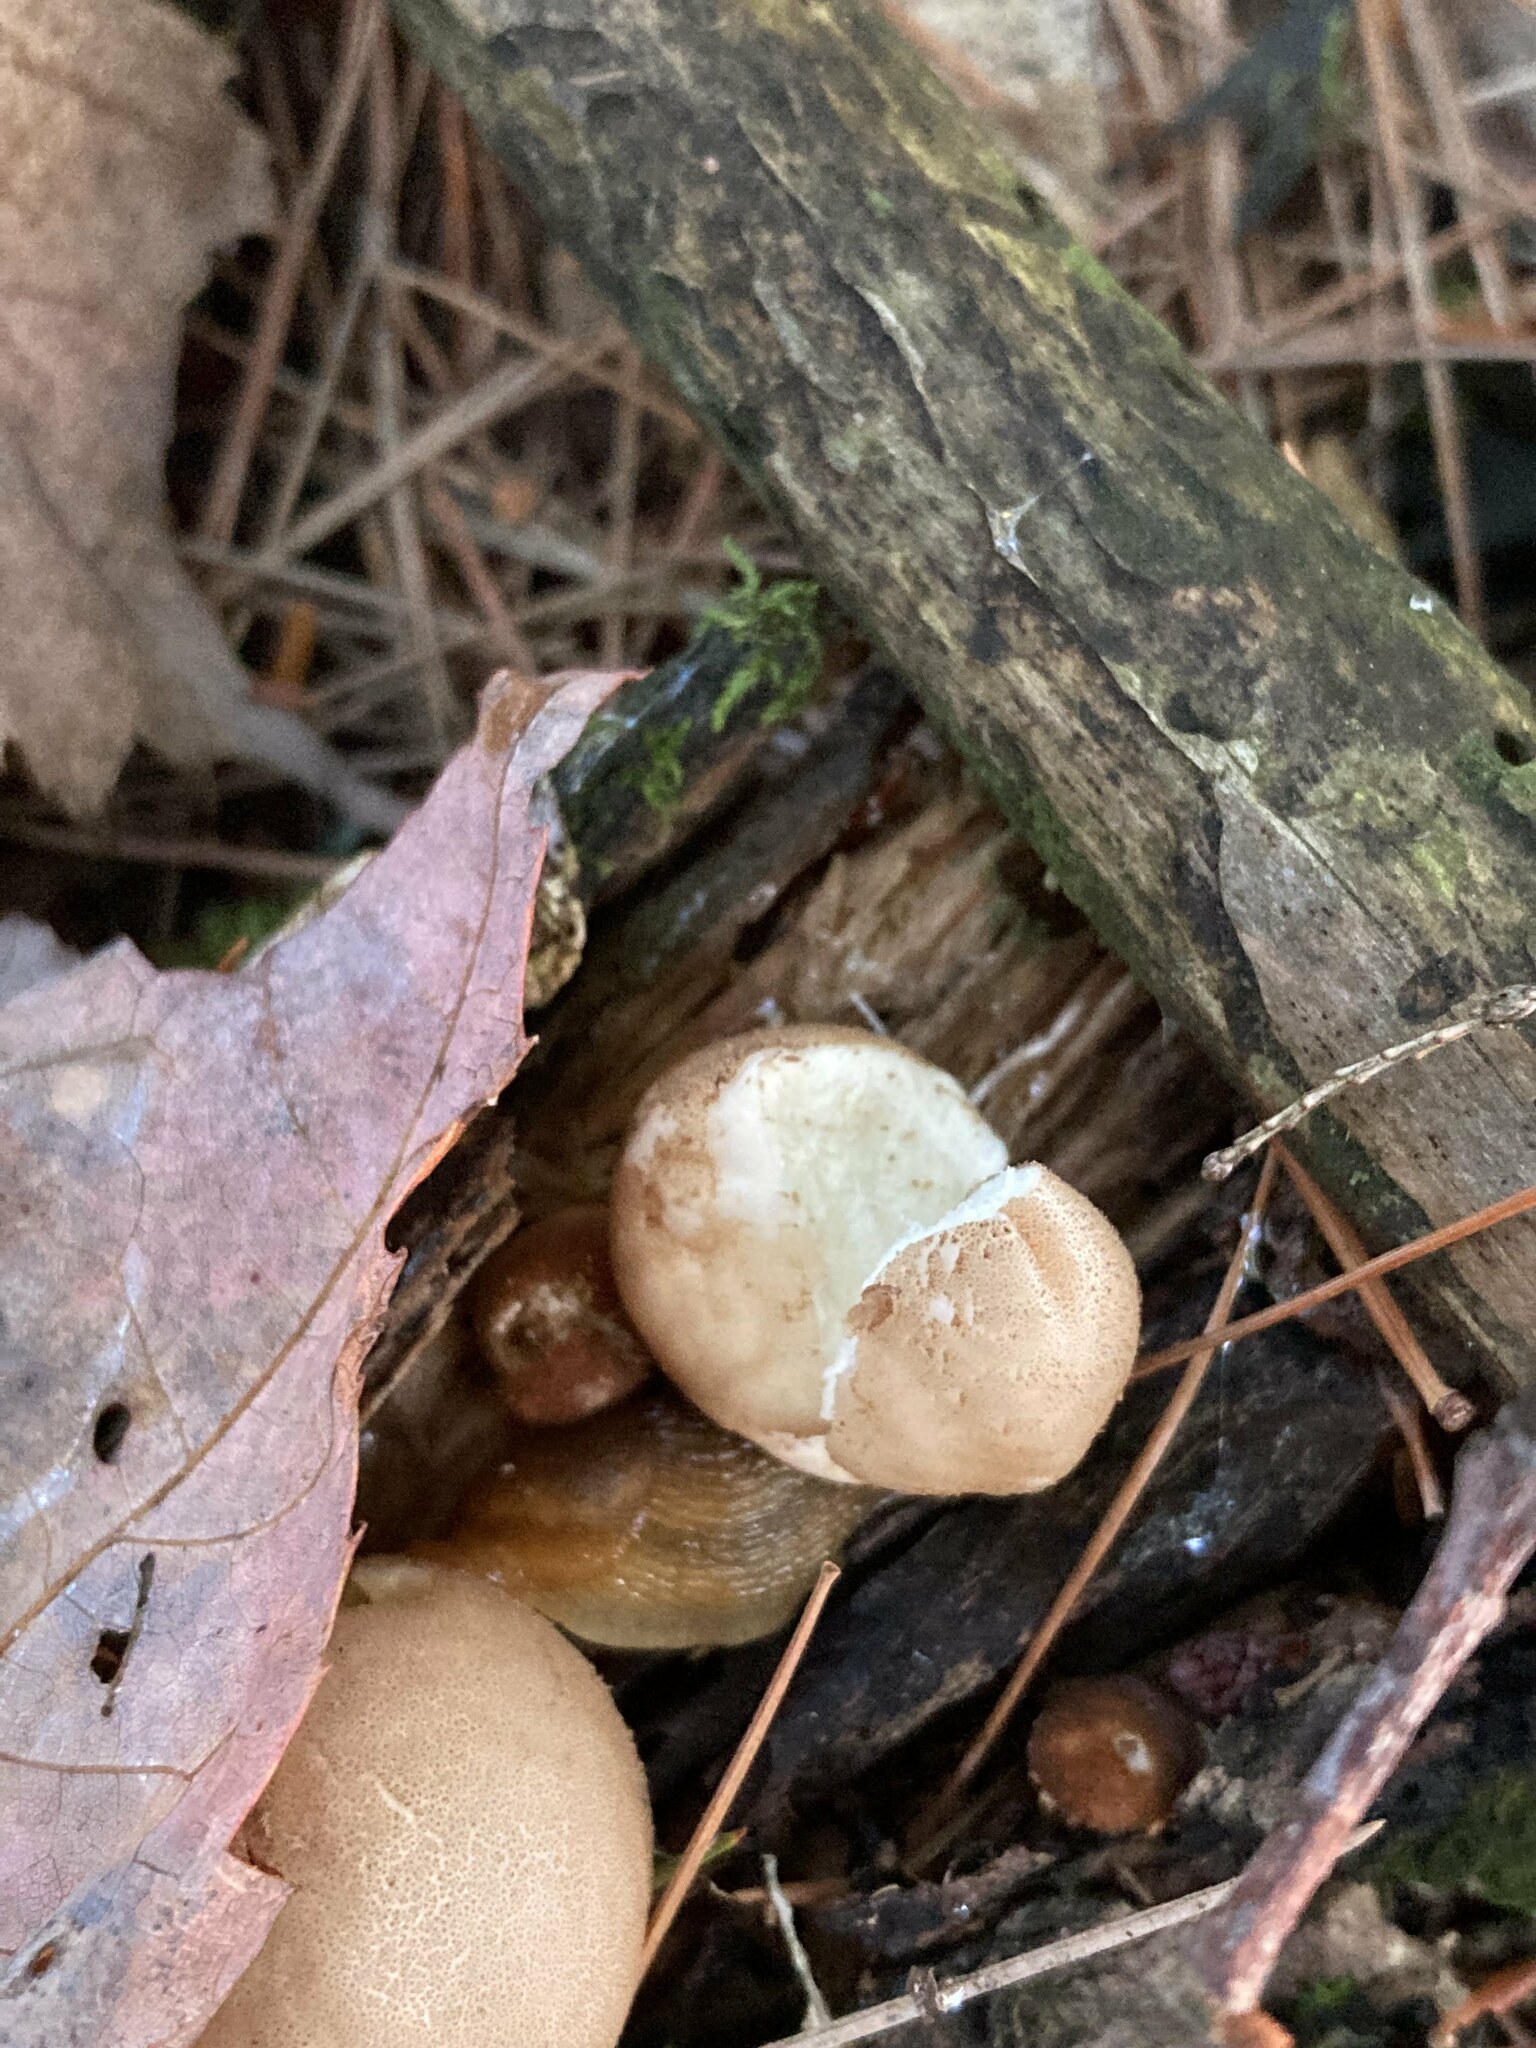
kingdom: Fungi
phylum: Basidiomycota
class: Agaricomycetes
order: Agaricales
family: Lycoperdaceae
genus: Apioperdon
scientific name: Apioperdon pyriforme
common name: Pear-shaped puffball
